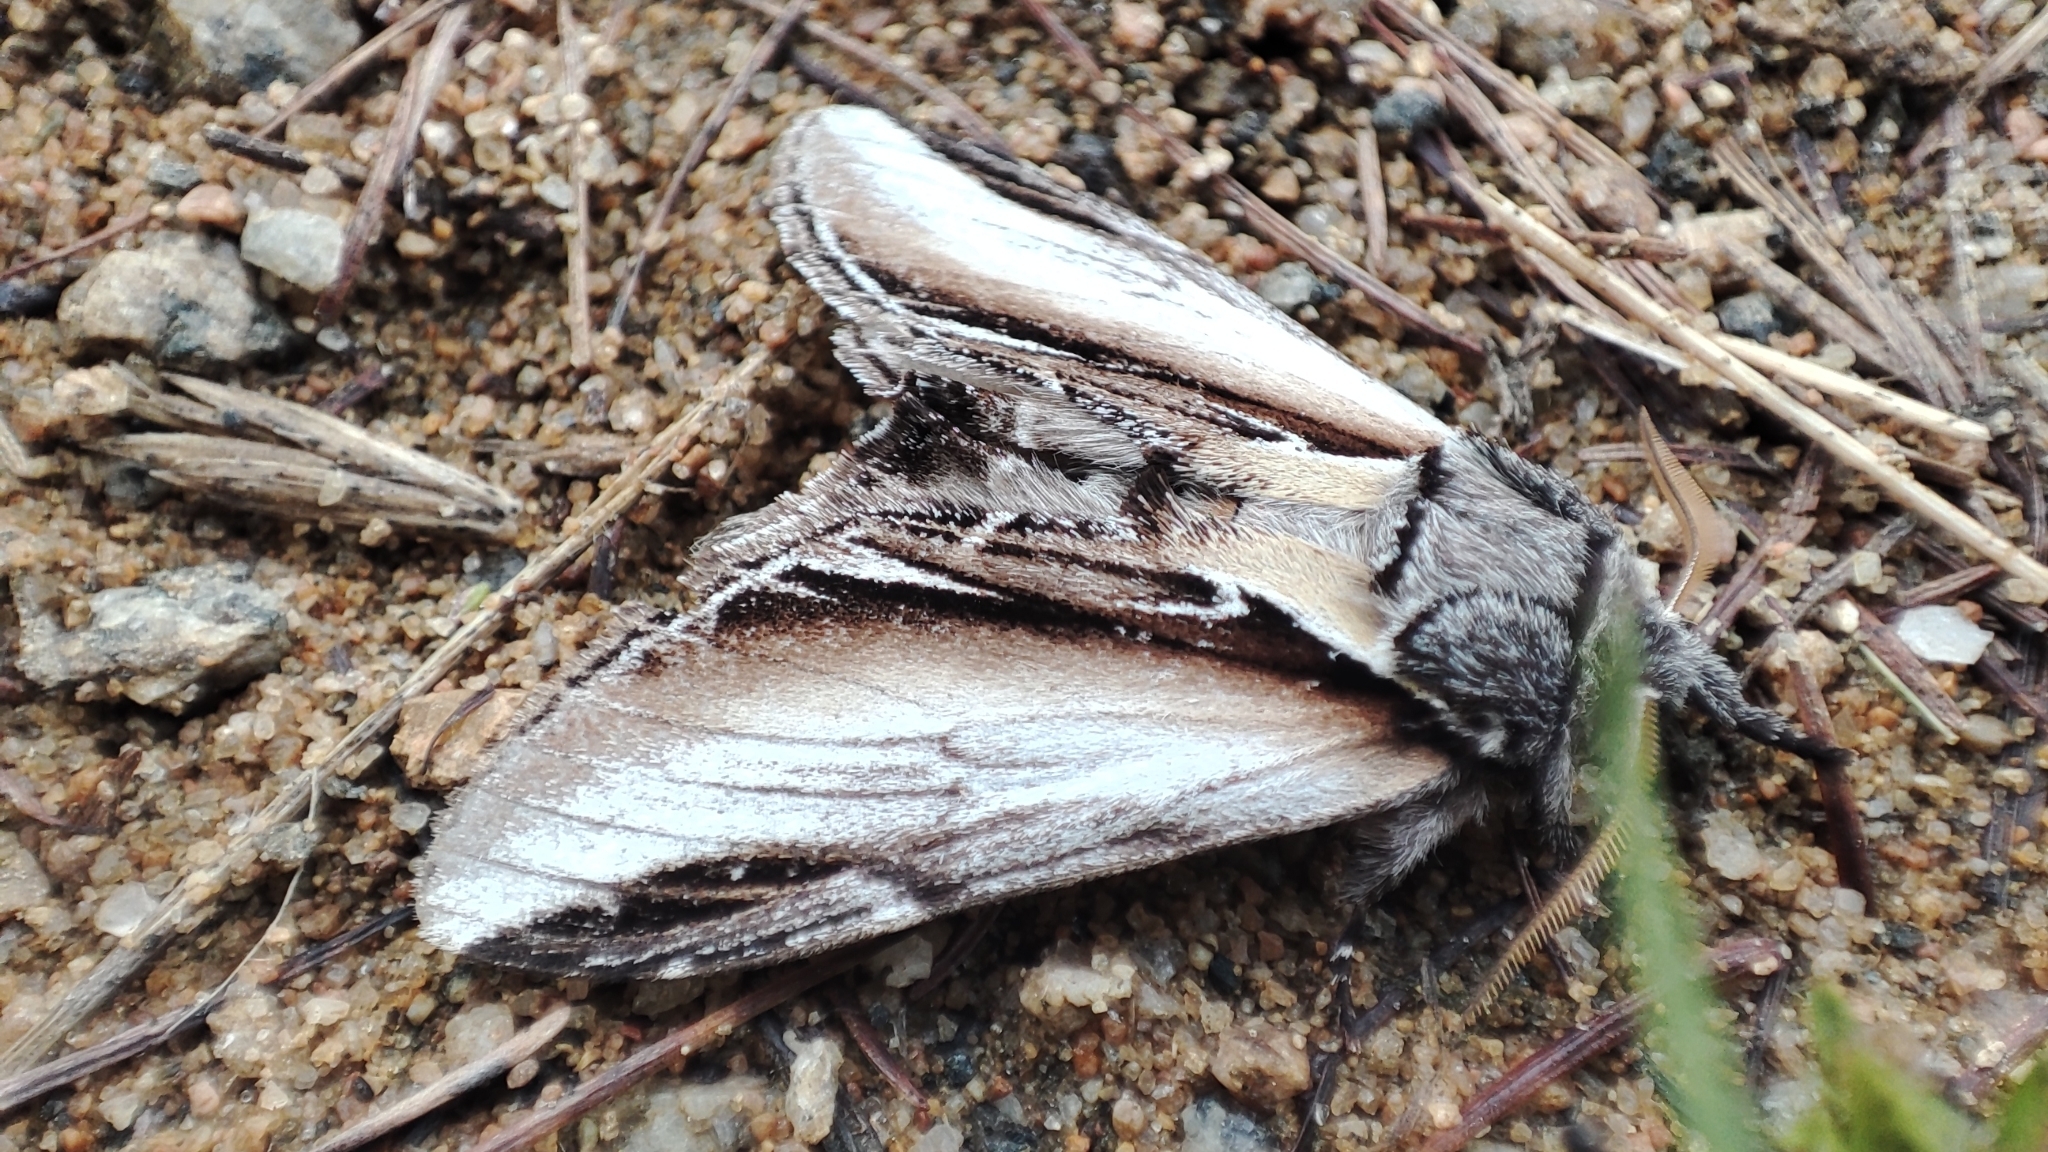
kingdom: Animalia
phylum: Arthropoda
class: Insecta
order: Lepidoptera
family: Notodontidae
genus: Pheosia
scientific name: Pheosia rimosa
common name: Black-rimmed prominent
